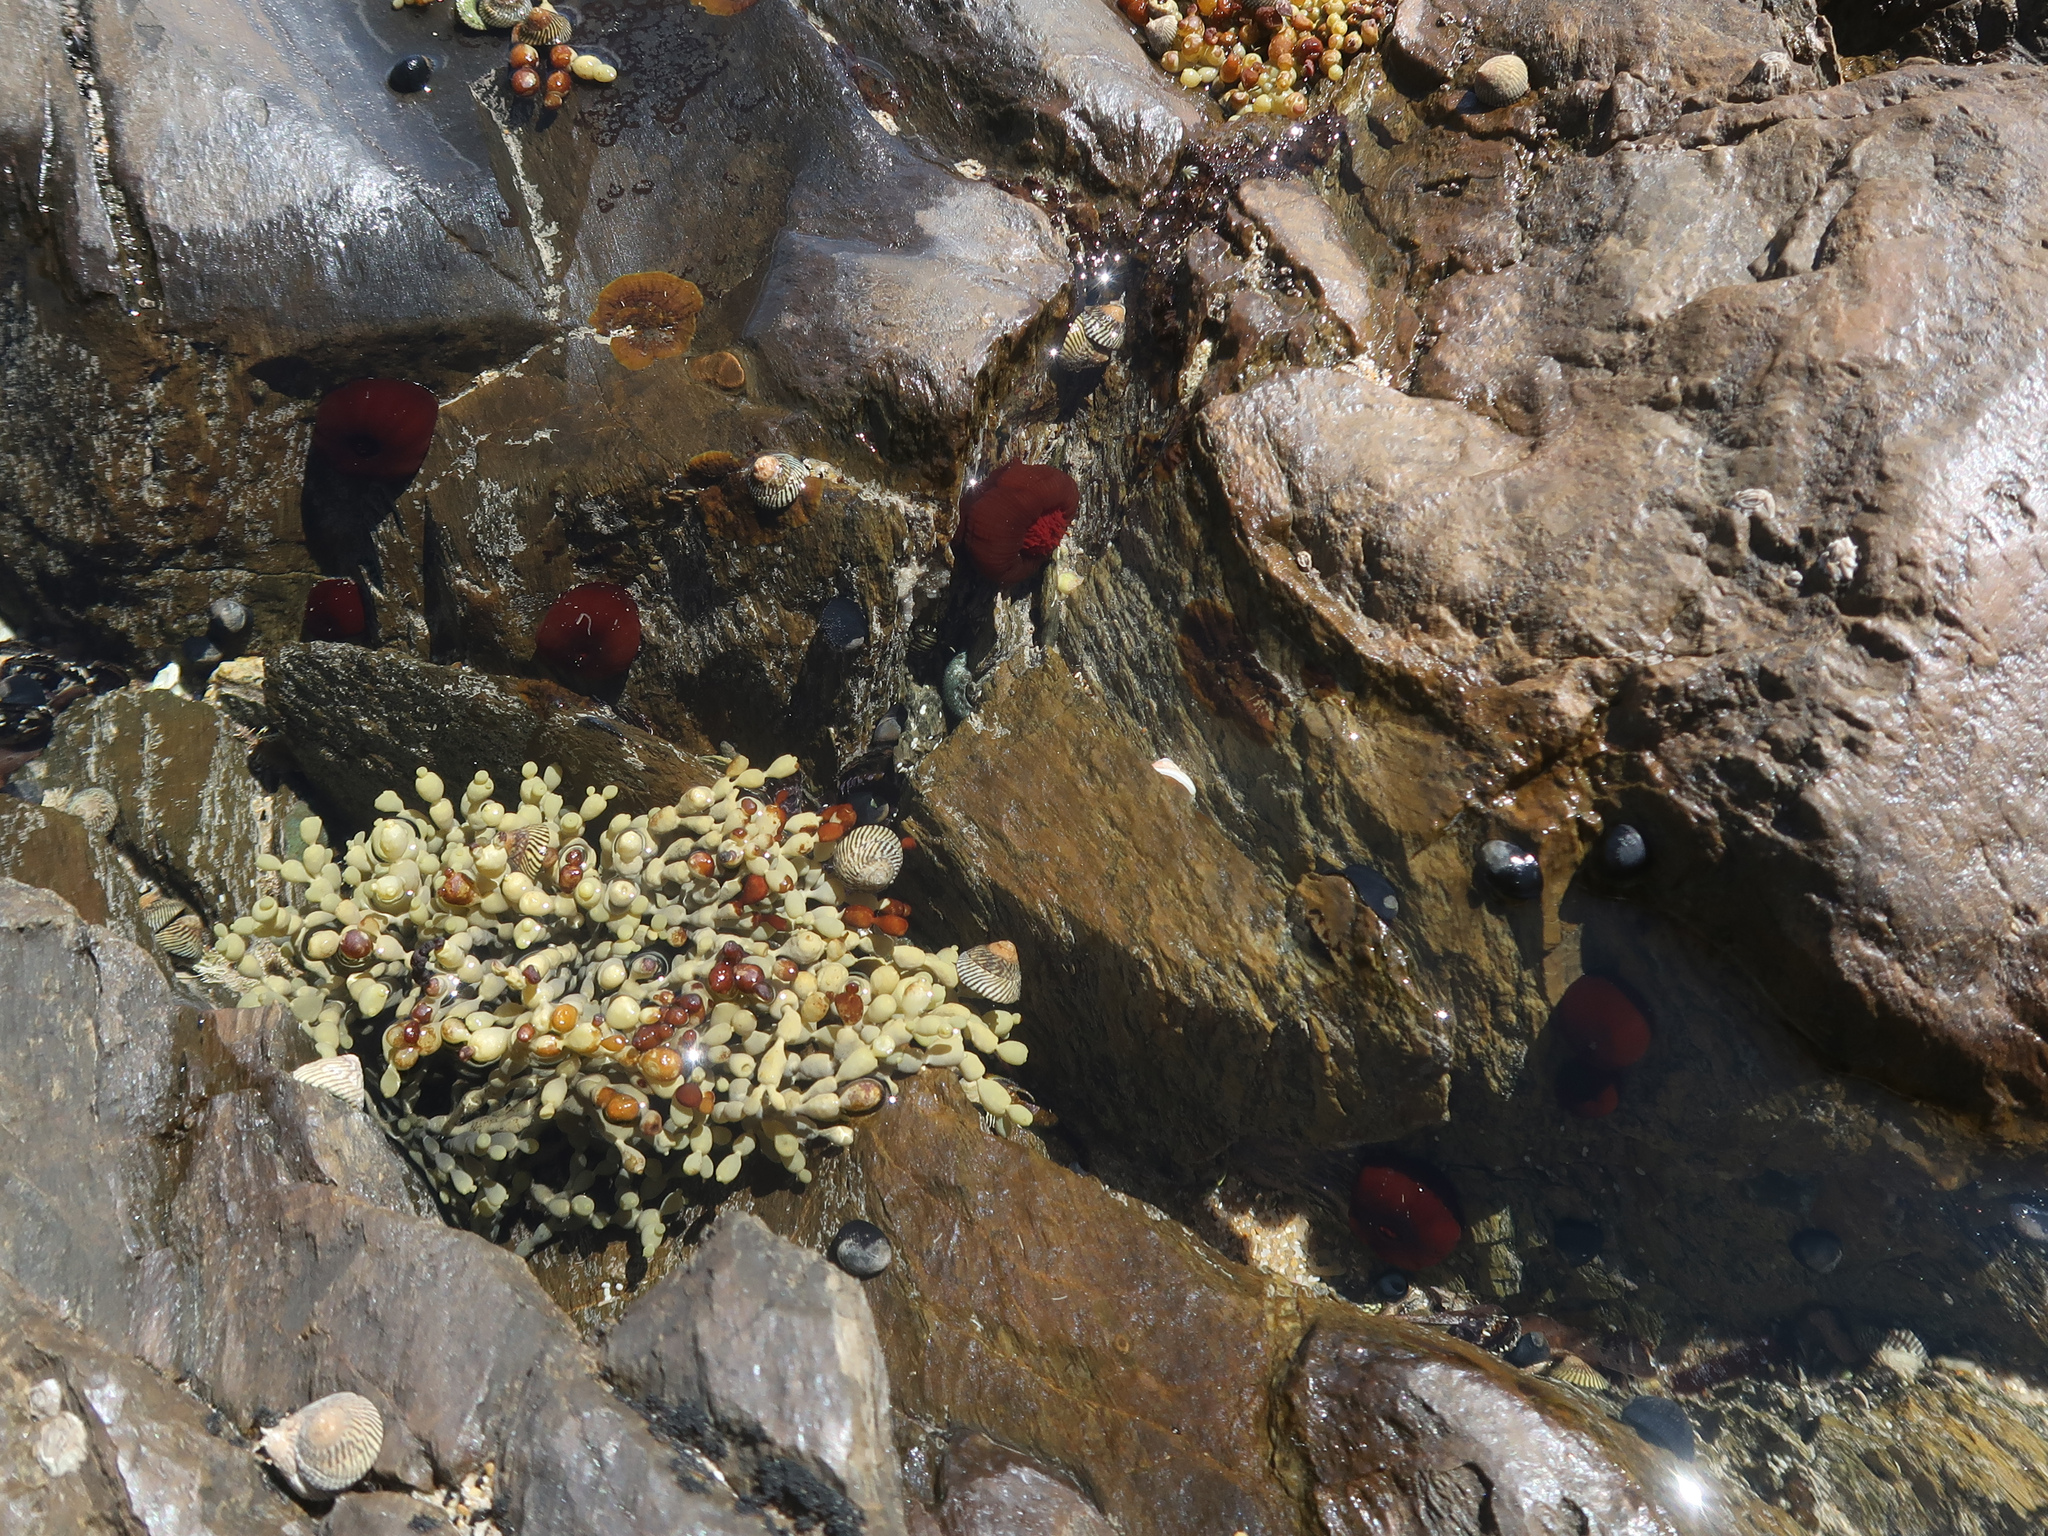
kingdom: Animalia
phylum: Cnidaria
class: Anthozoa
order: Actiniaria
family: Actiniidae
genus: Actinia
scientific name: Actinia tenebrosa
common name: Waratah anemone
